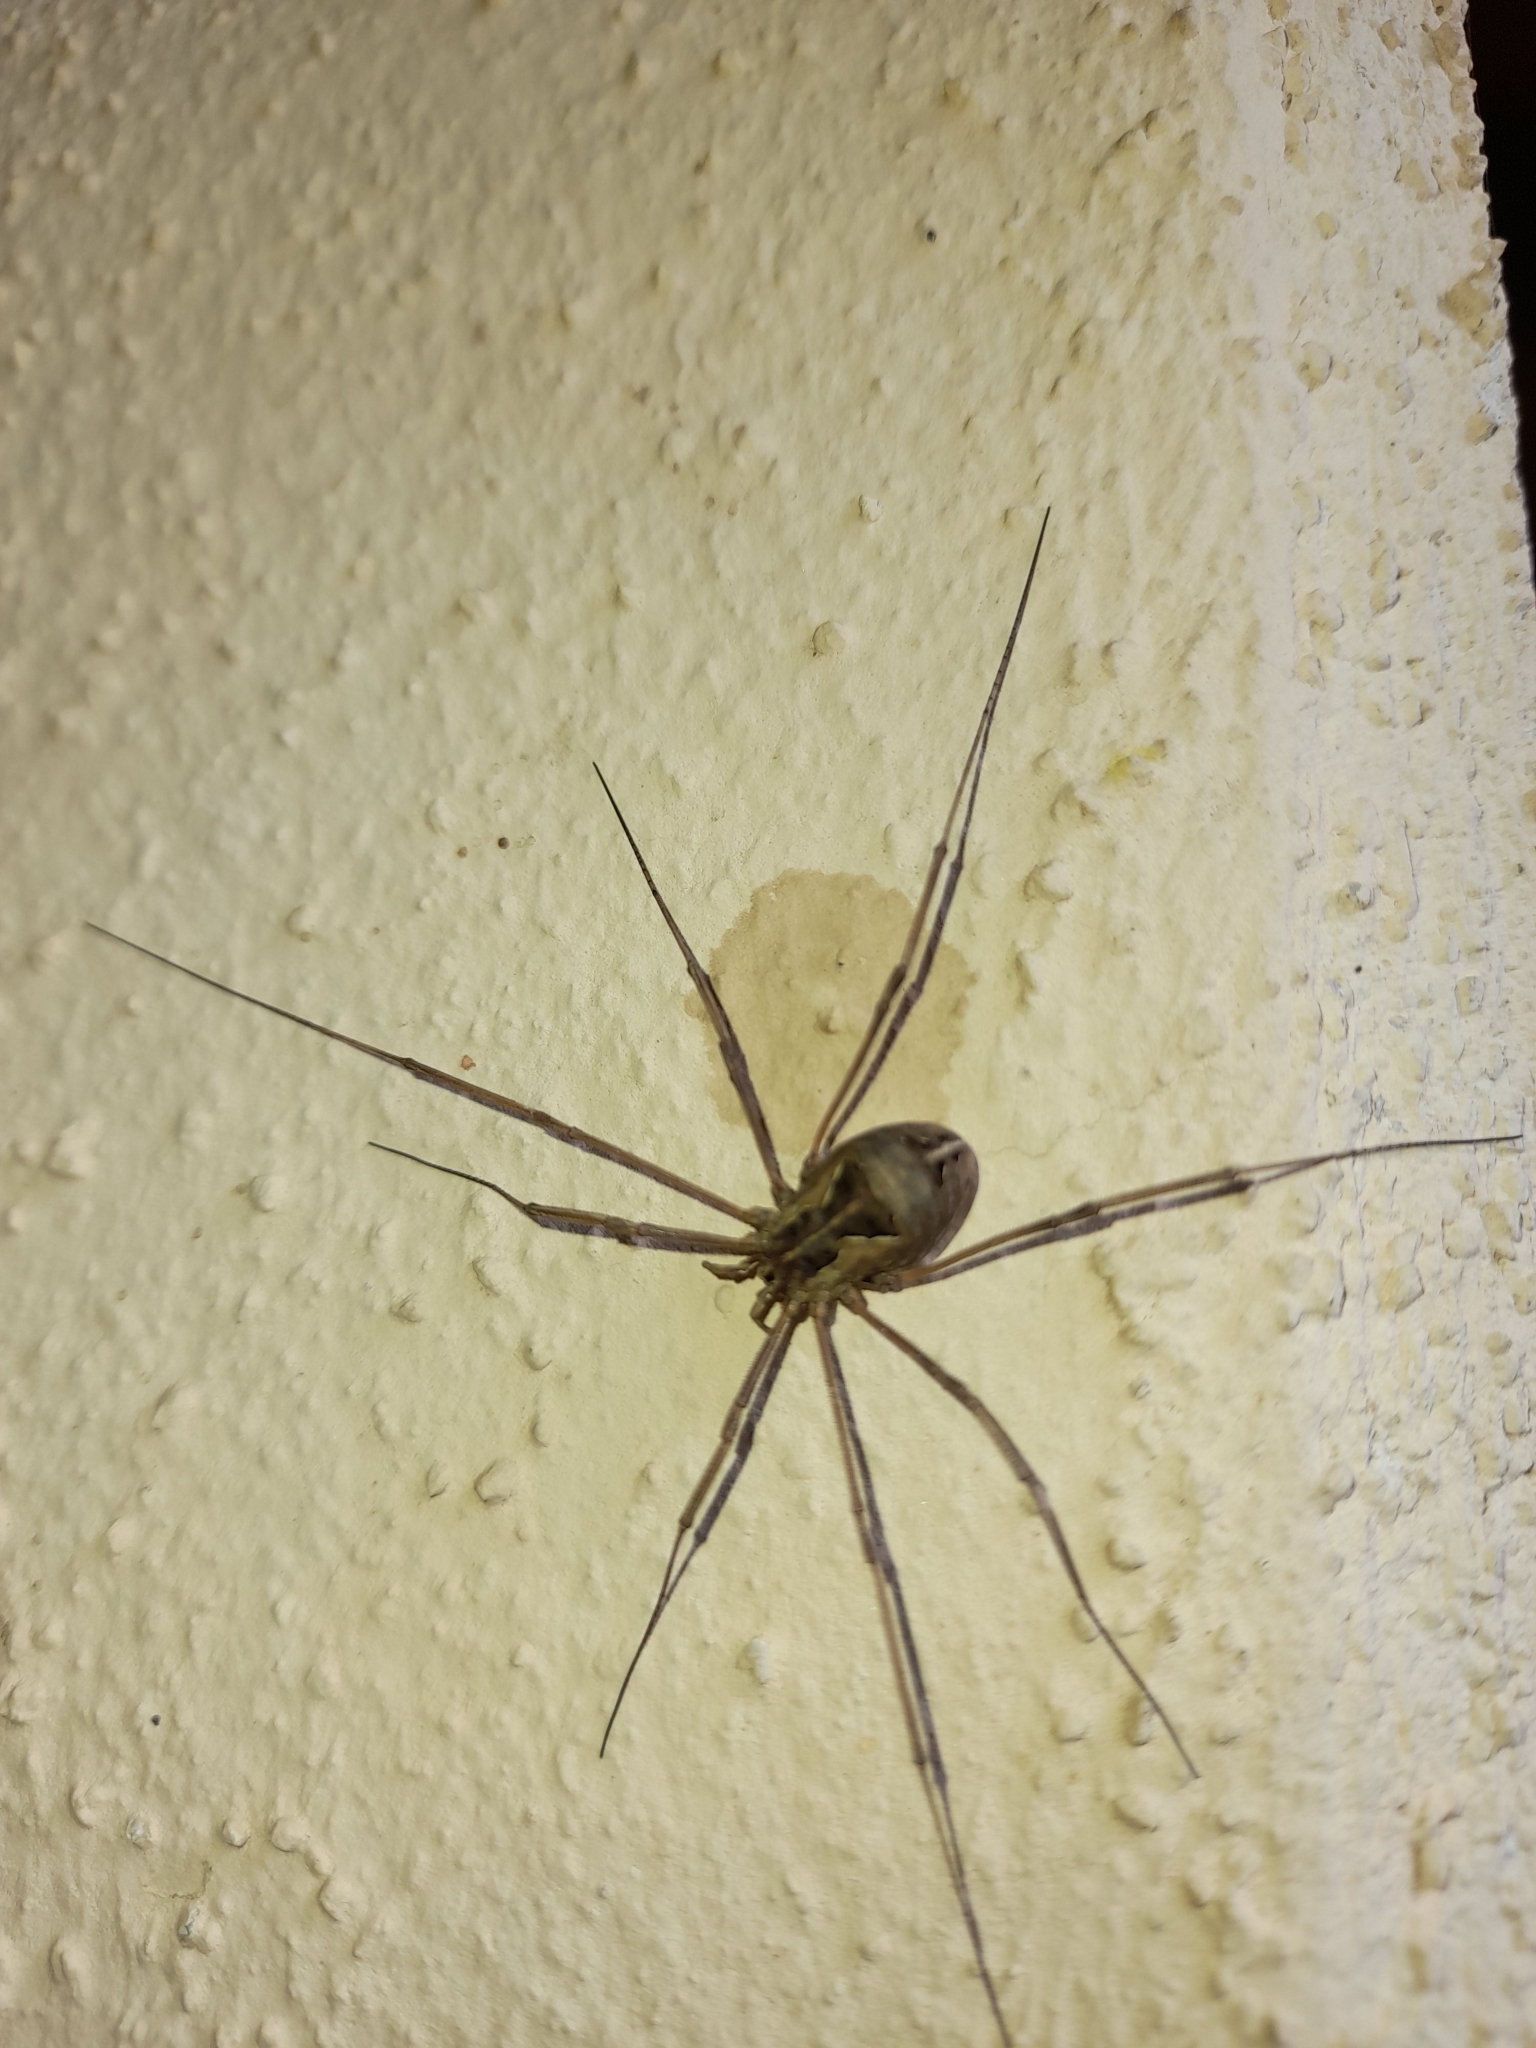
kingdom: Animalia
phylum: Arthropoda
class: Arachnida
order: Opiliones
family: Phalangiidae
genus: Metaphalangium
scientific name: Metaphalangium cirtanum
